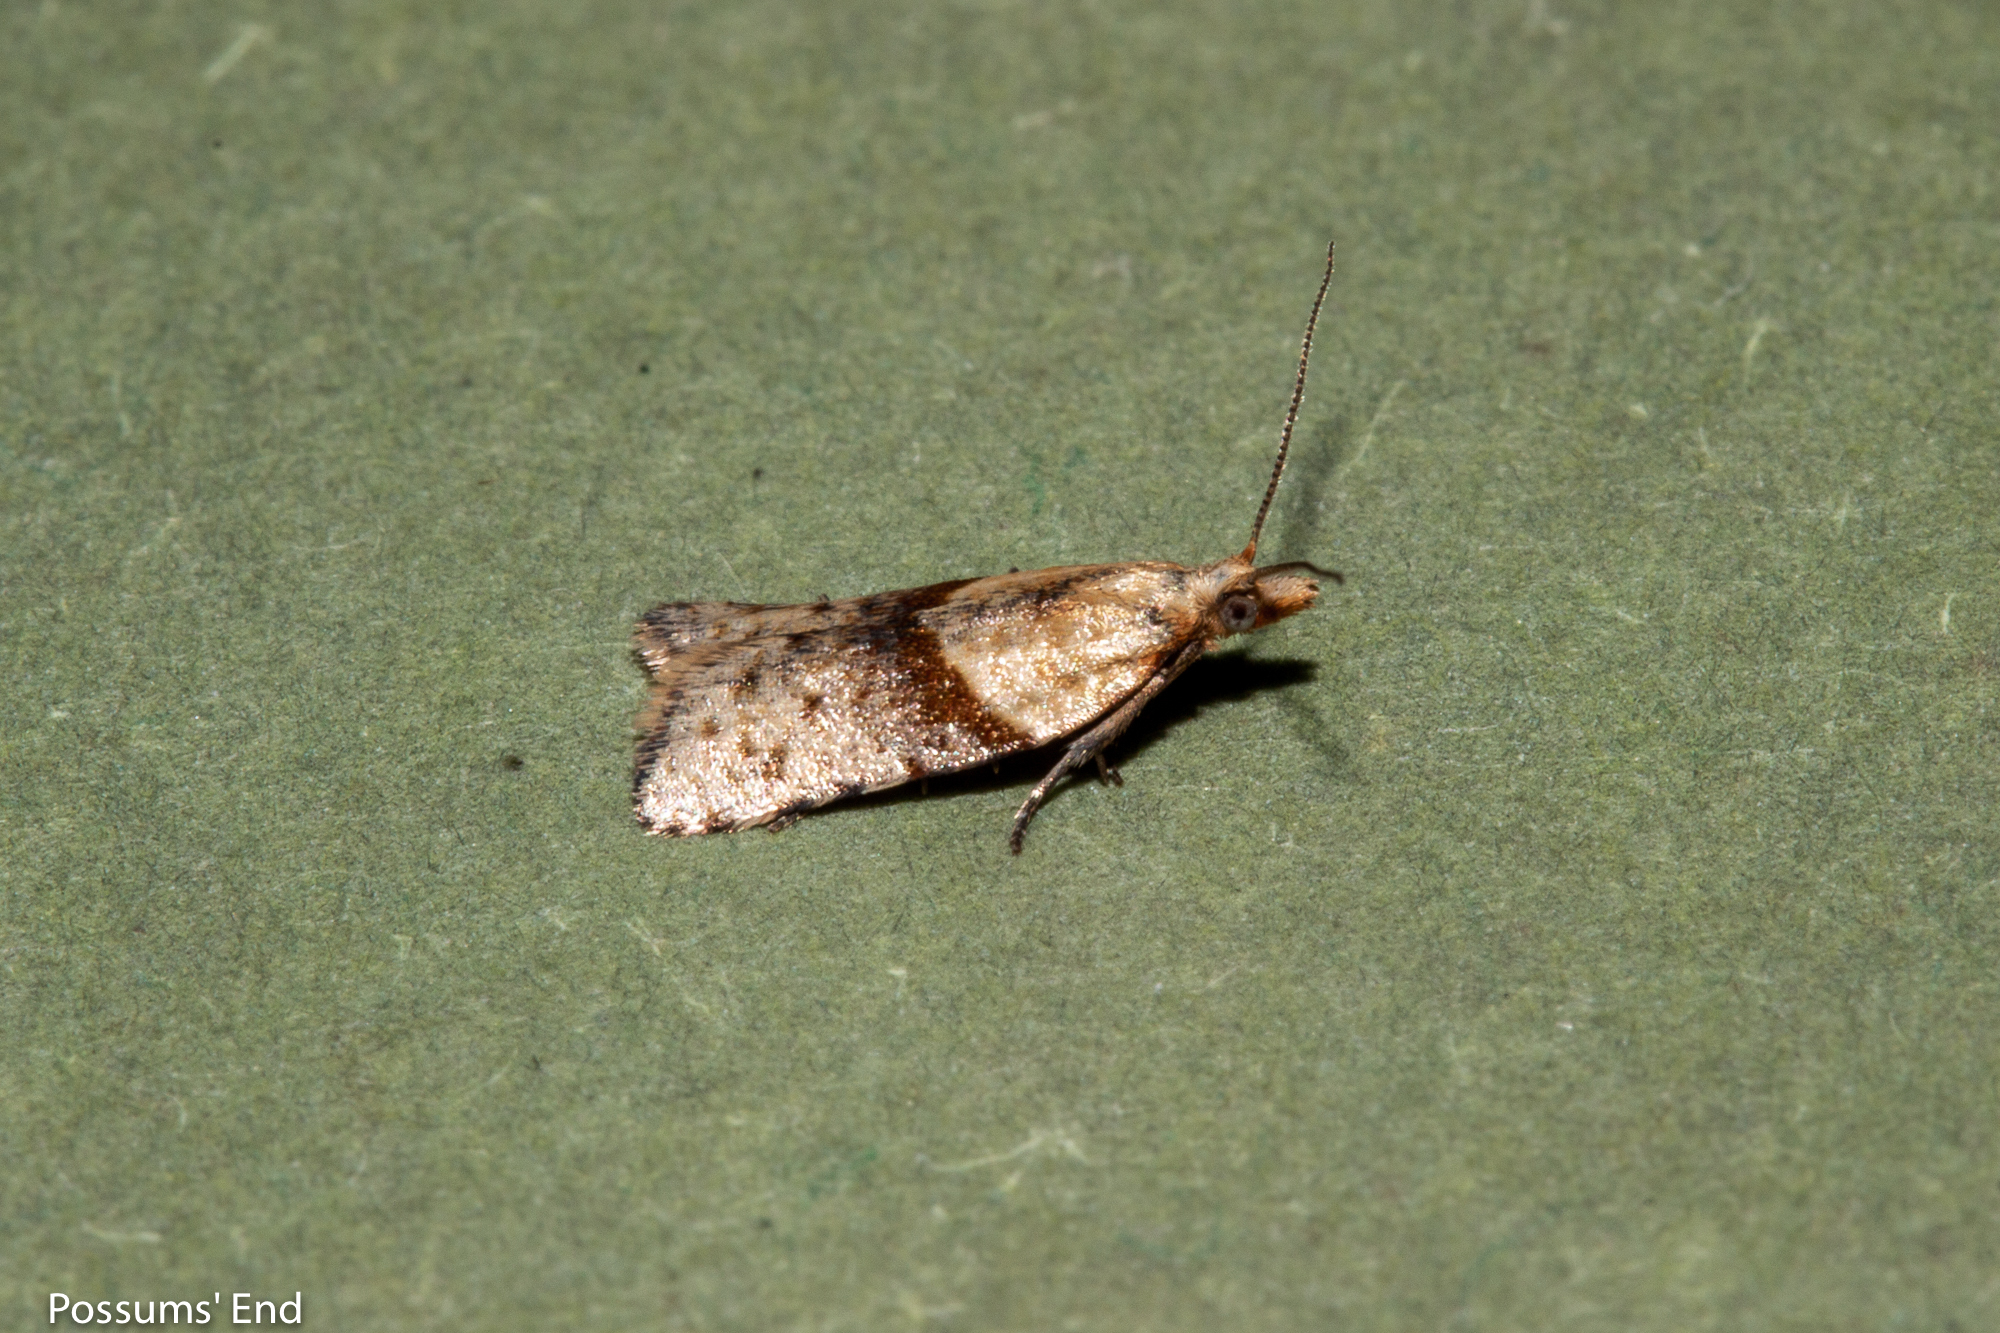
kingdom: Animalia
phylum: Arthropoda
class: Insecta
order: Lepidoptera
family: Tortricidae
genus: Epichorista
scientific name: Epichorista hemionana
